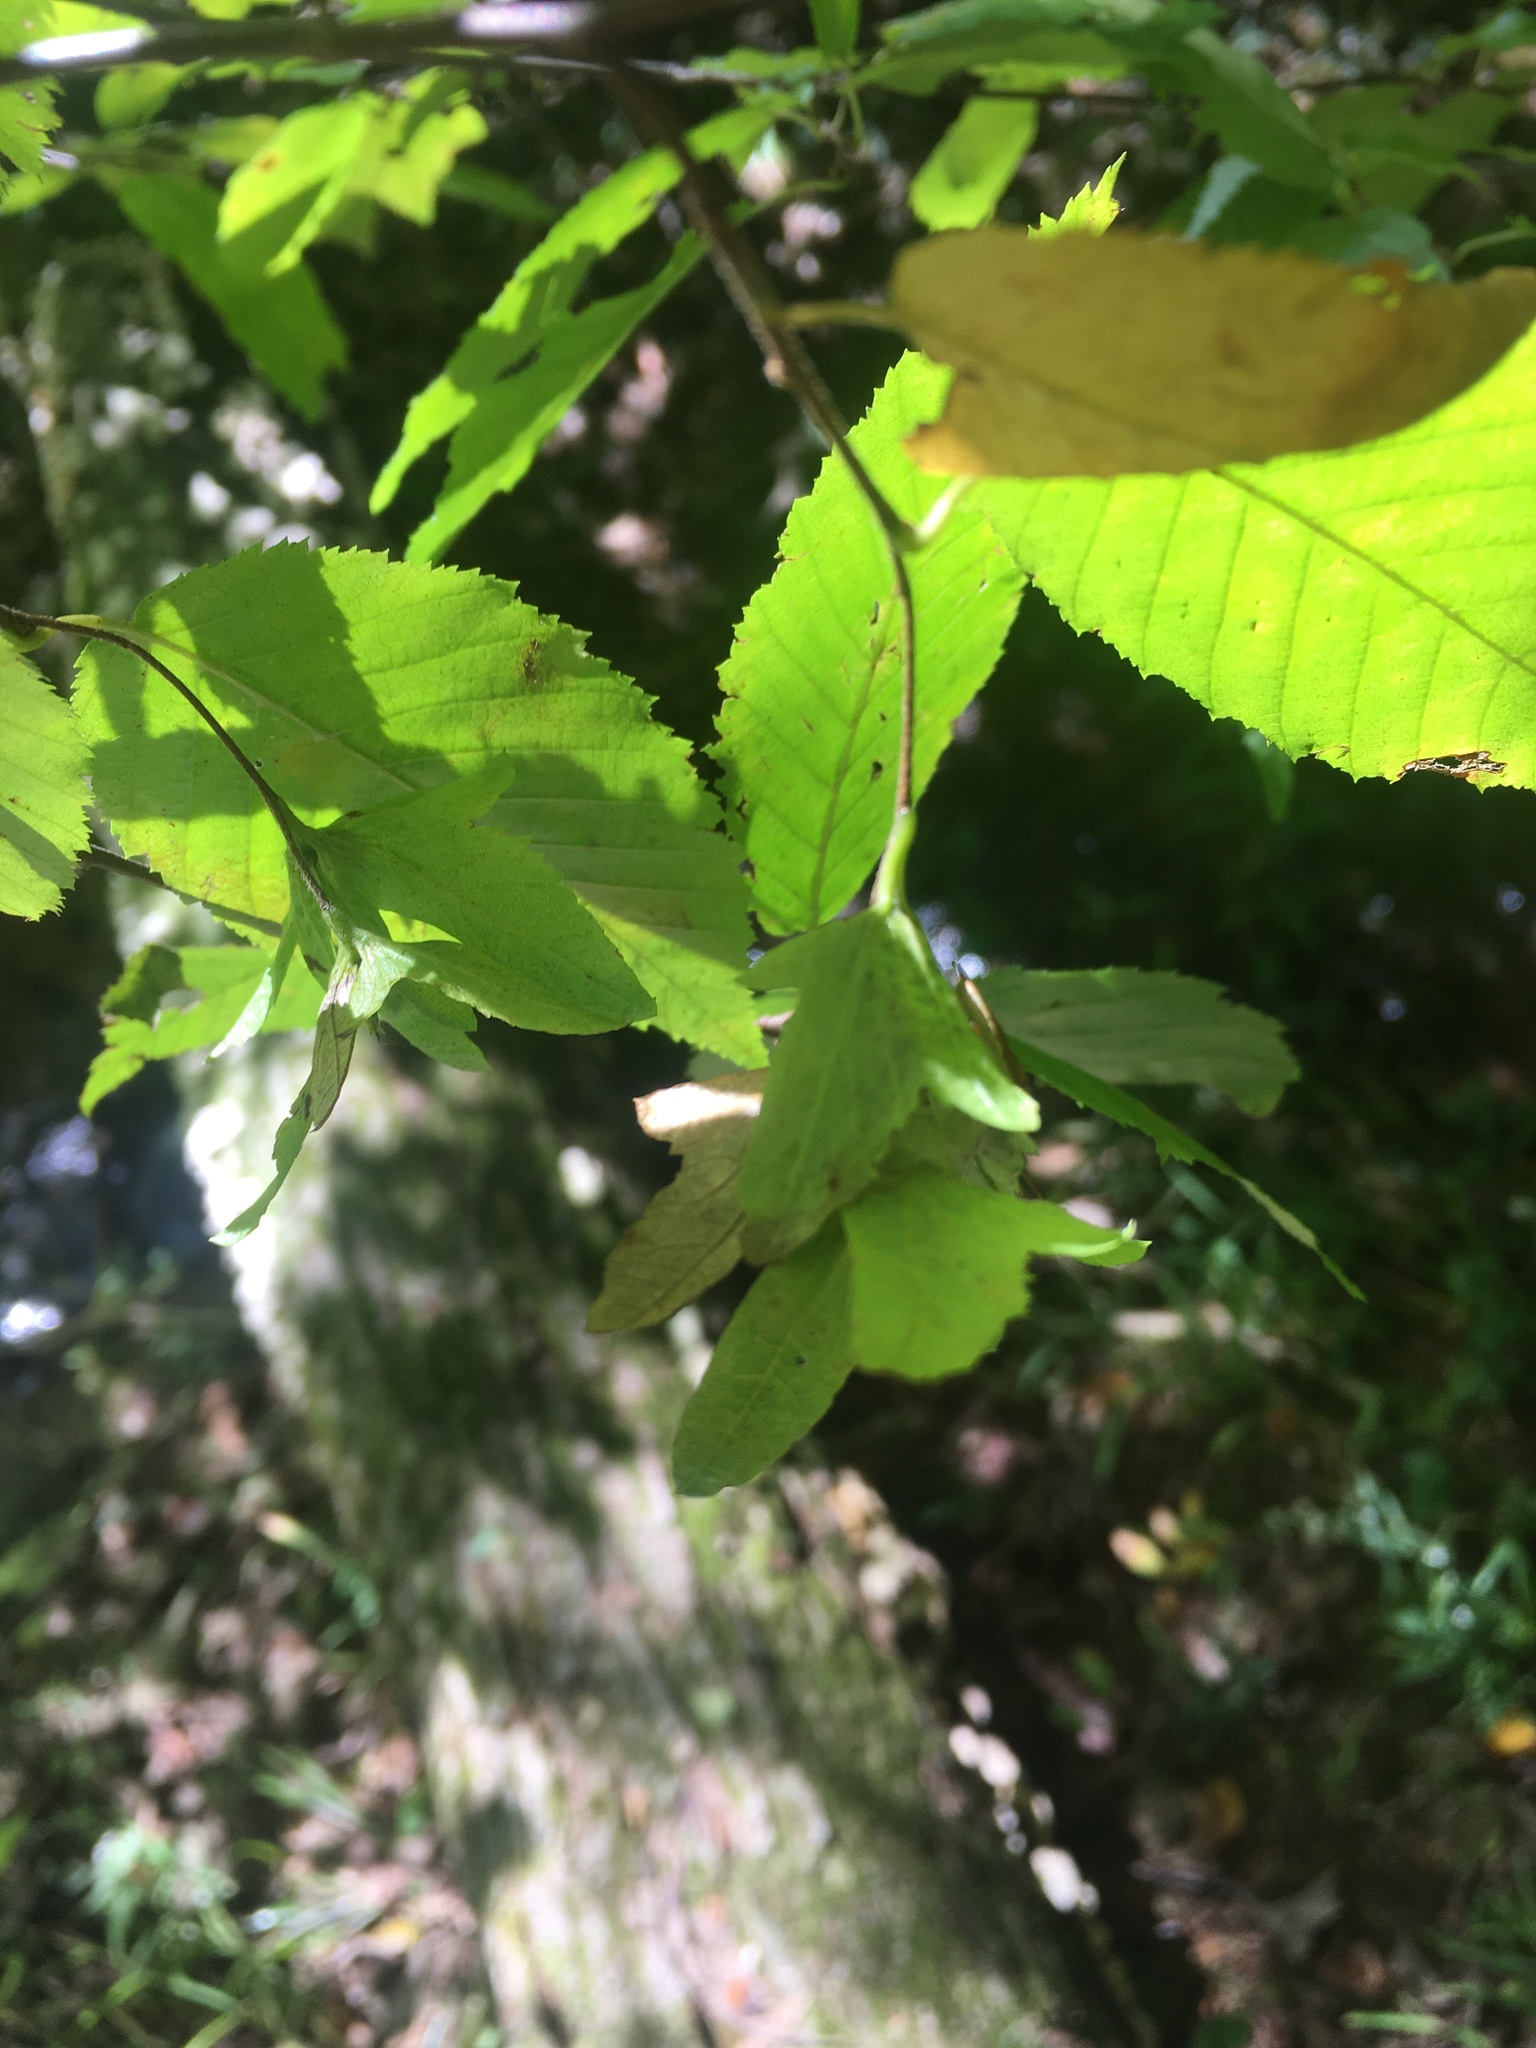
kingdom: Plantae
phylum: Tracheophyta
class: Magnoliopsida
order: Fagales
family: Betulaceae
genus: Carpinus
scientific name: Carpinus caroliniana
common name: American hornbeam
